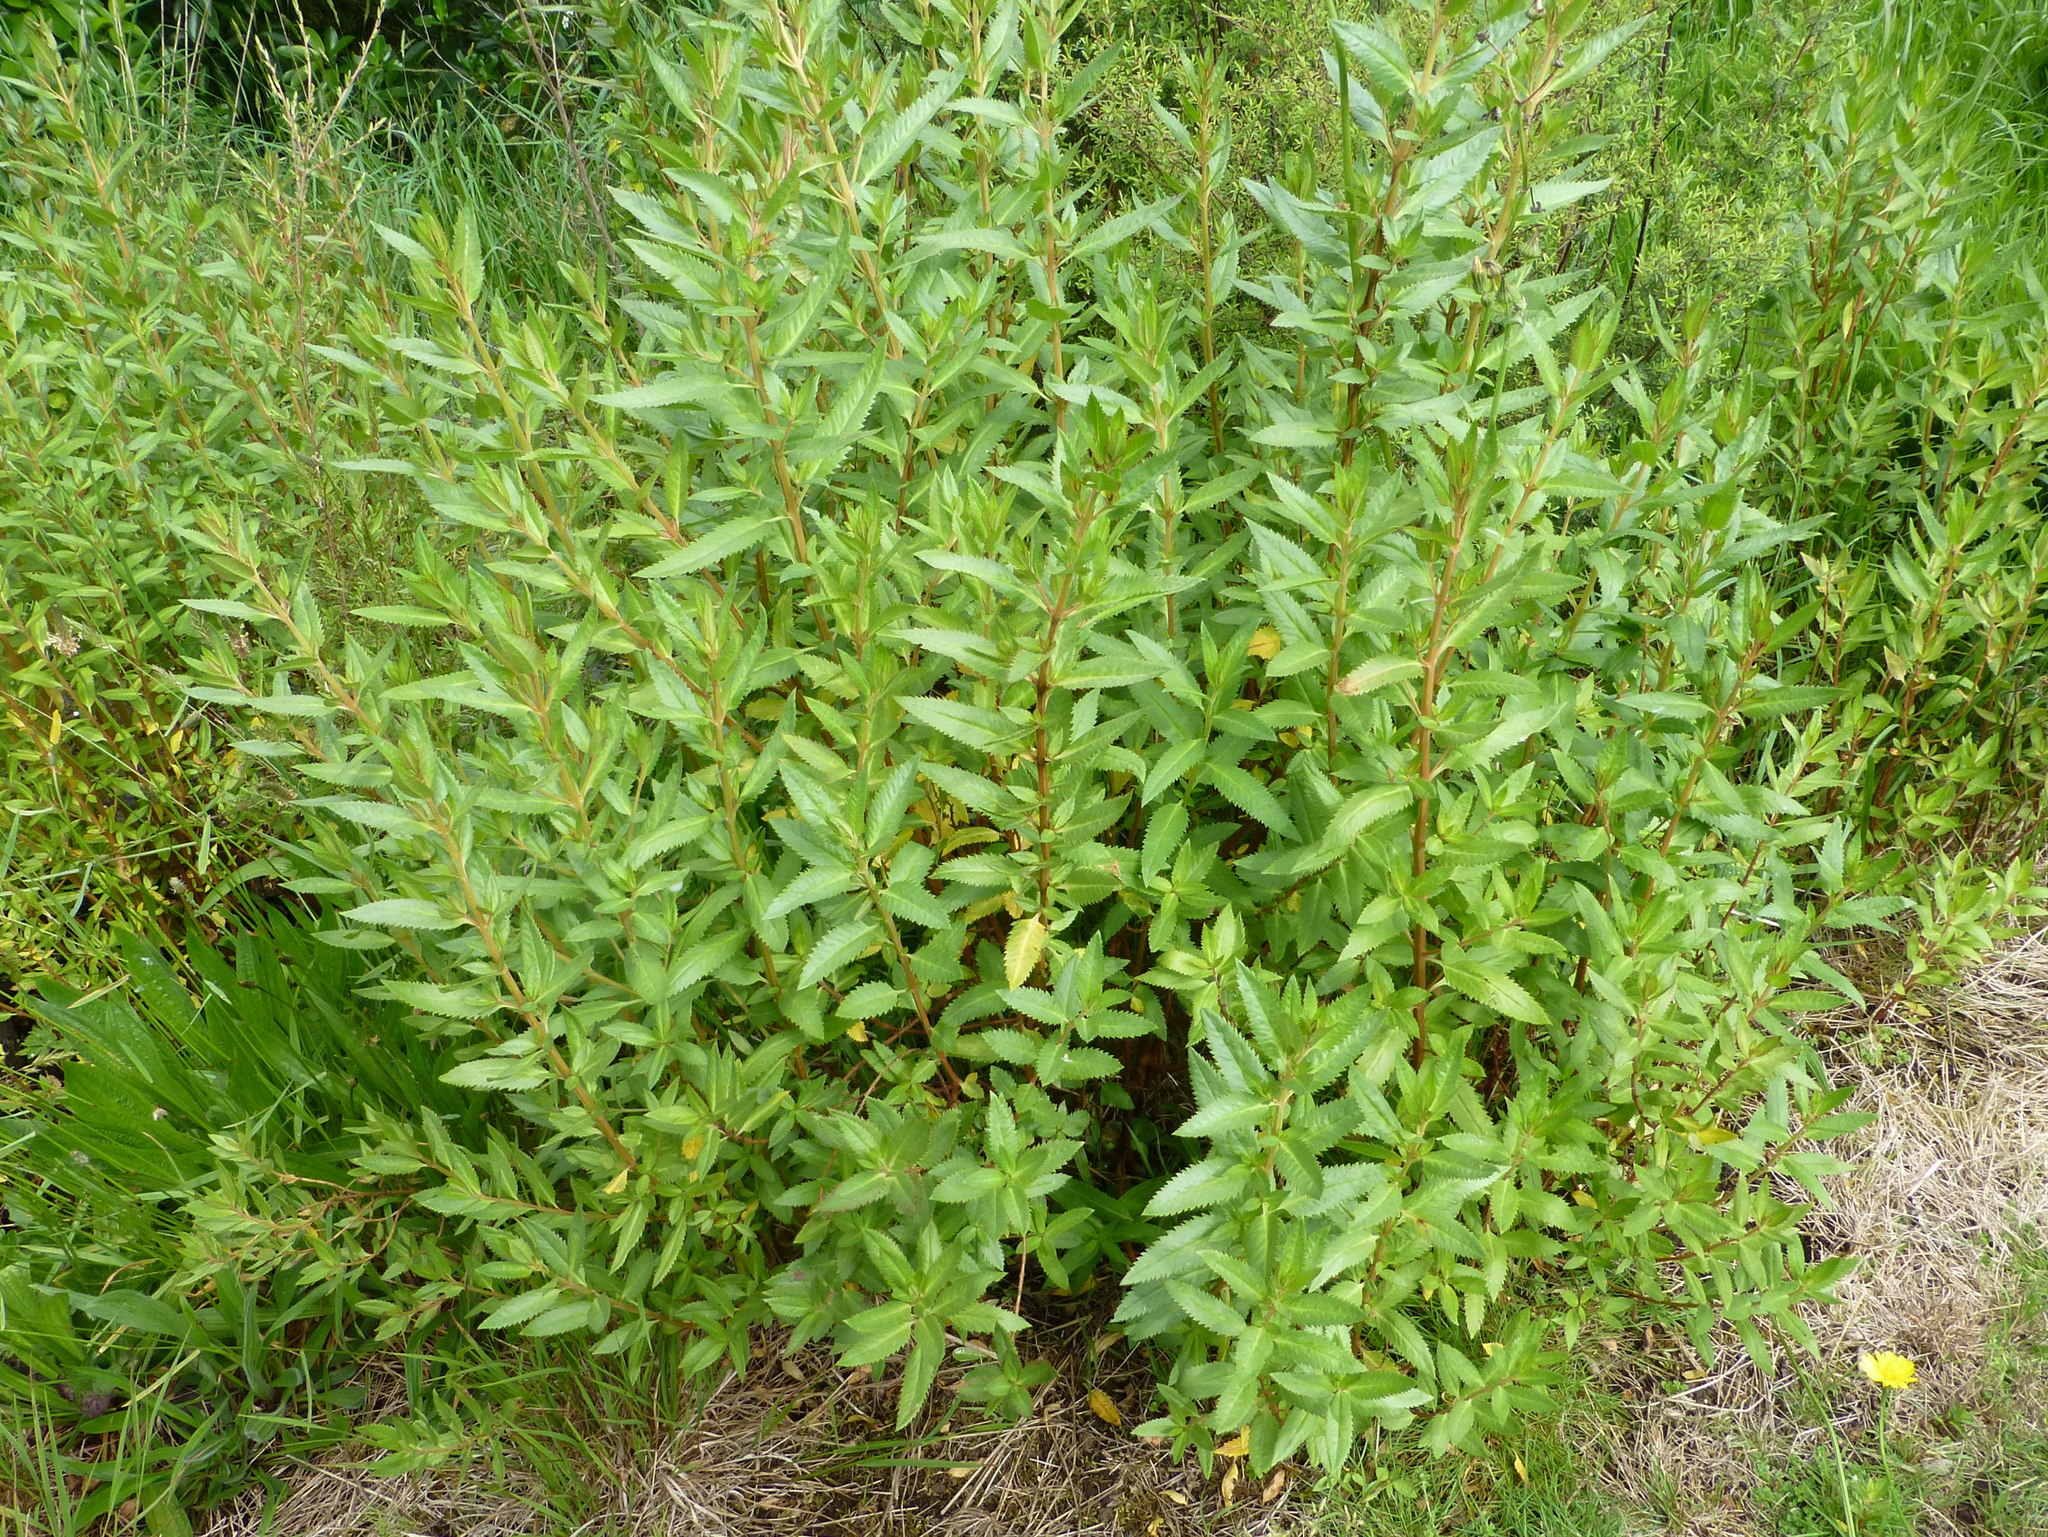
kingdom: Plantae
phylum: Tracheophyta
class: Magnoliopsida
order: Saxifragales
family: Haloragaceae
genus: Haloragis
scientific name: Haloragis erecta
